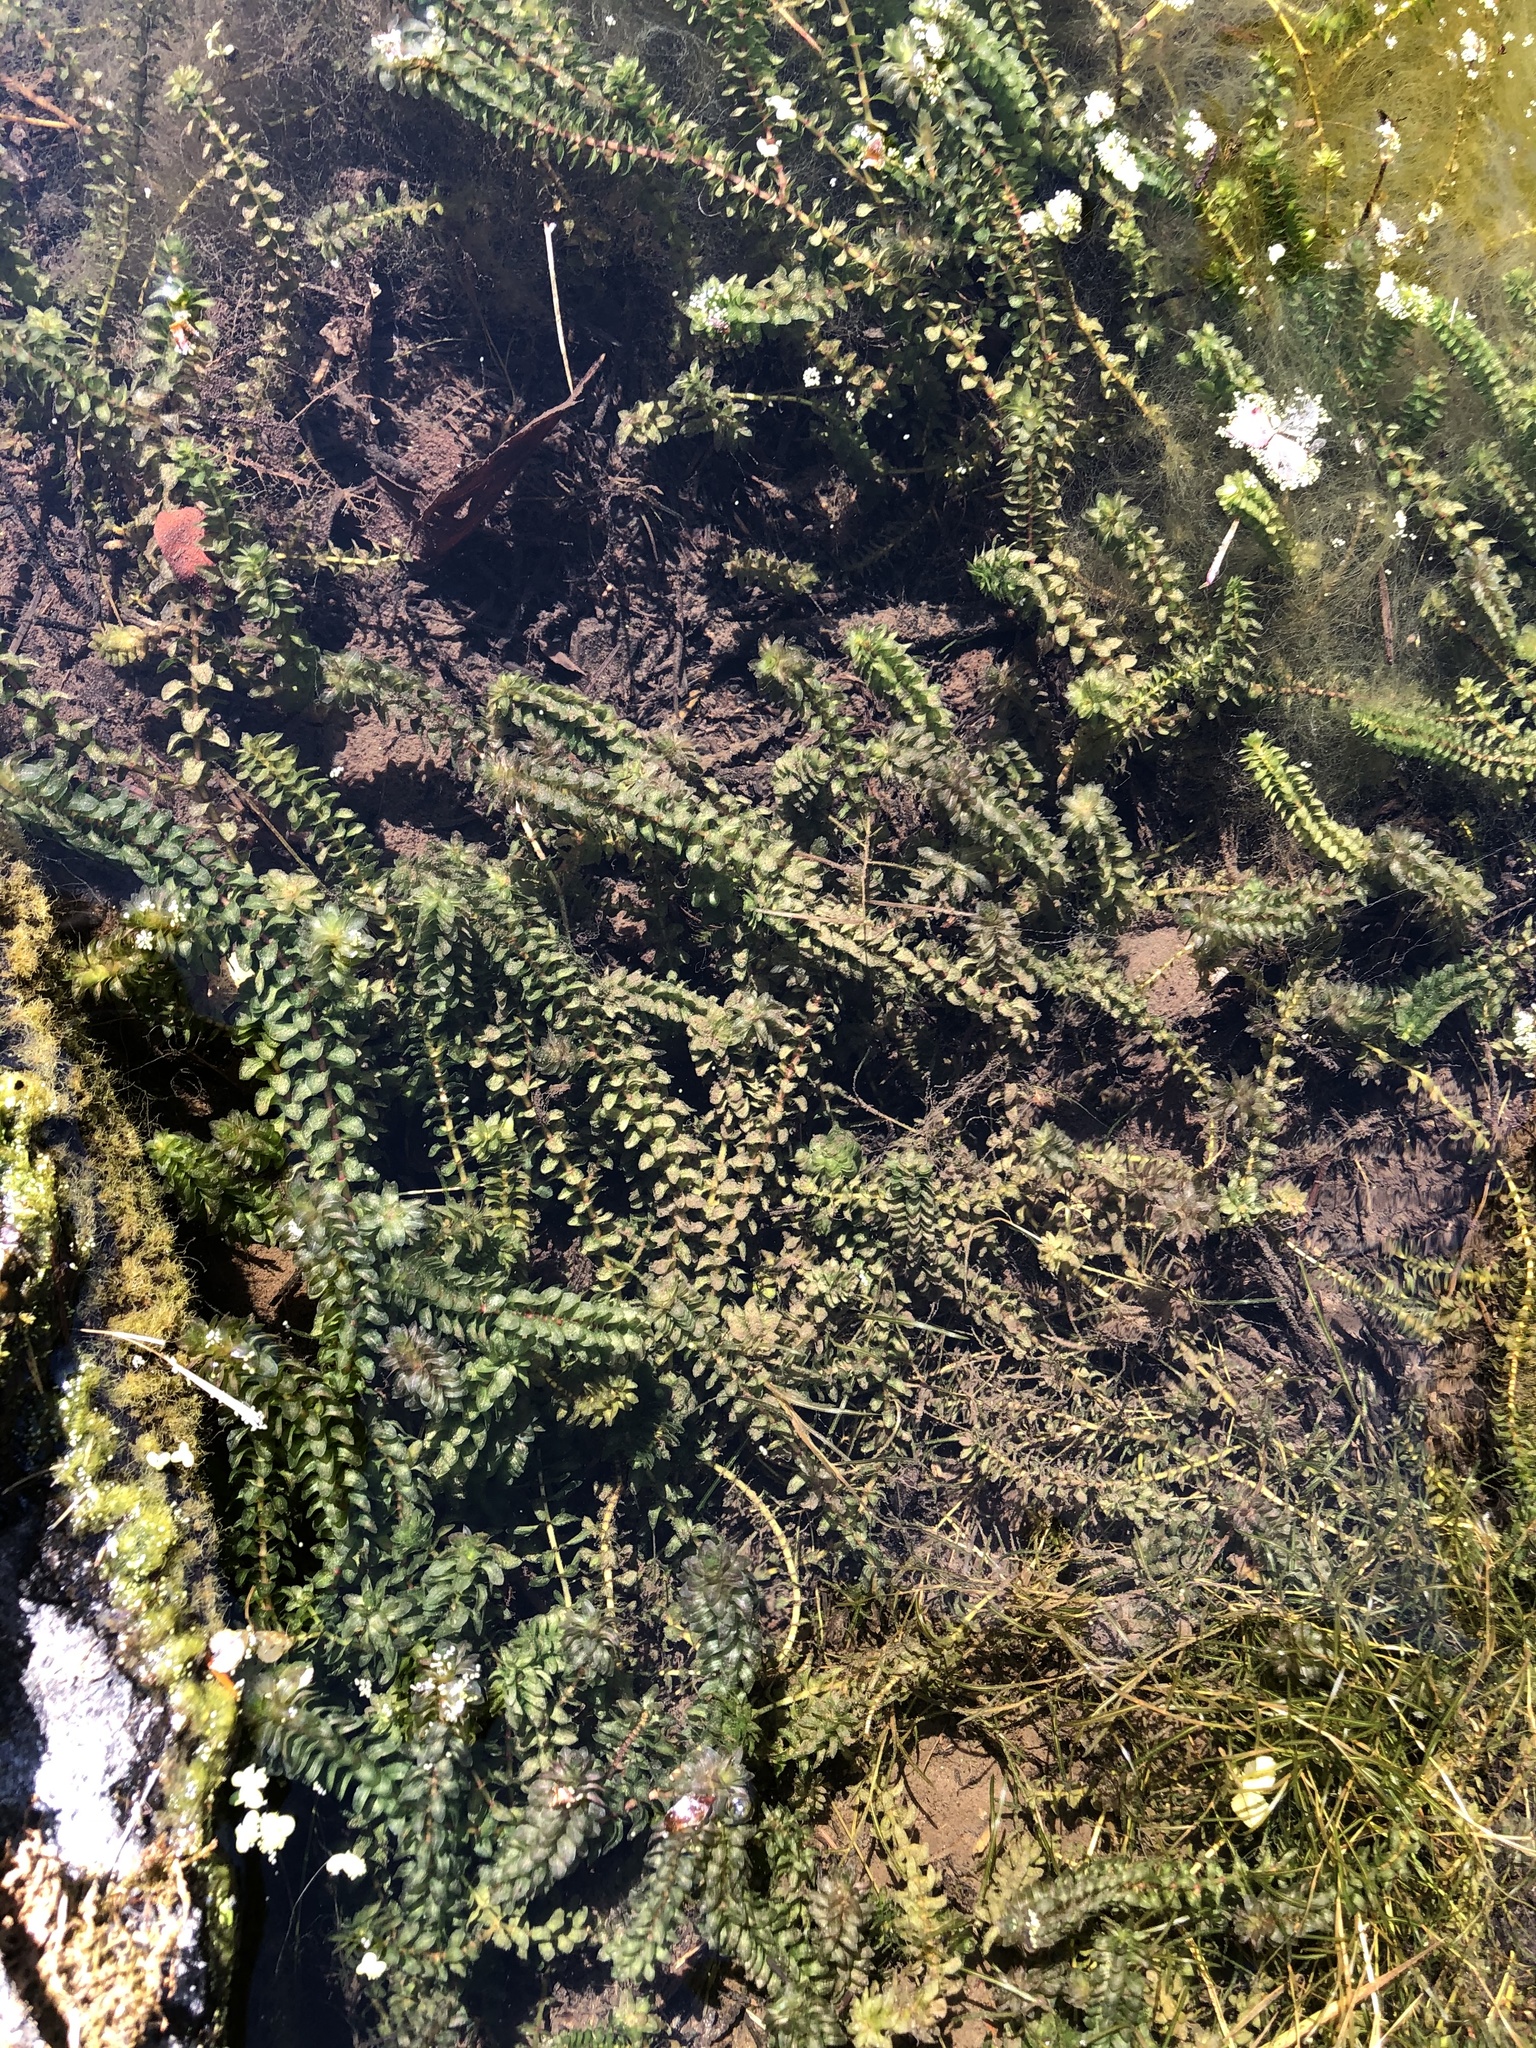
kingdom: Plantae
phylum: Tracheophyta
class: Liliopsida
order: Alismatales
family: Hydrocharitaceae
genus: Elodea
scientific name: Elodea canadensis
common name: Canadian waterweed
